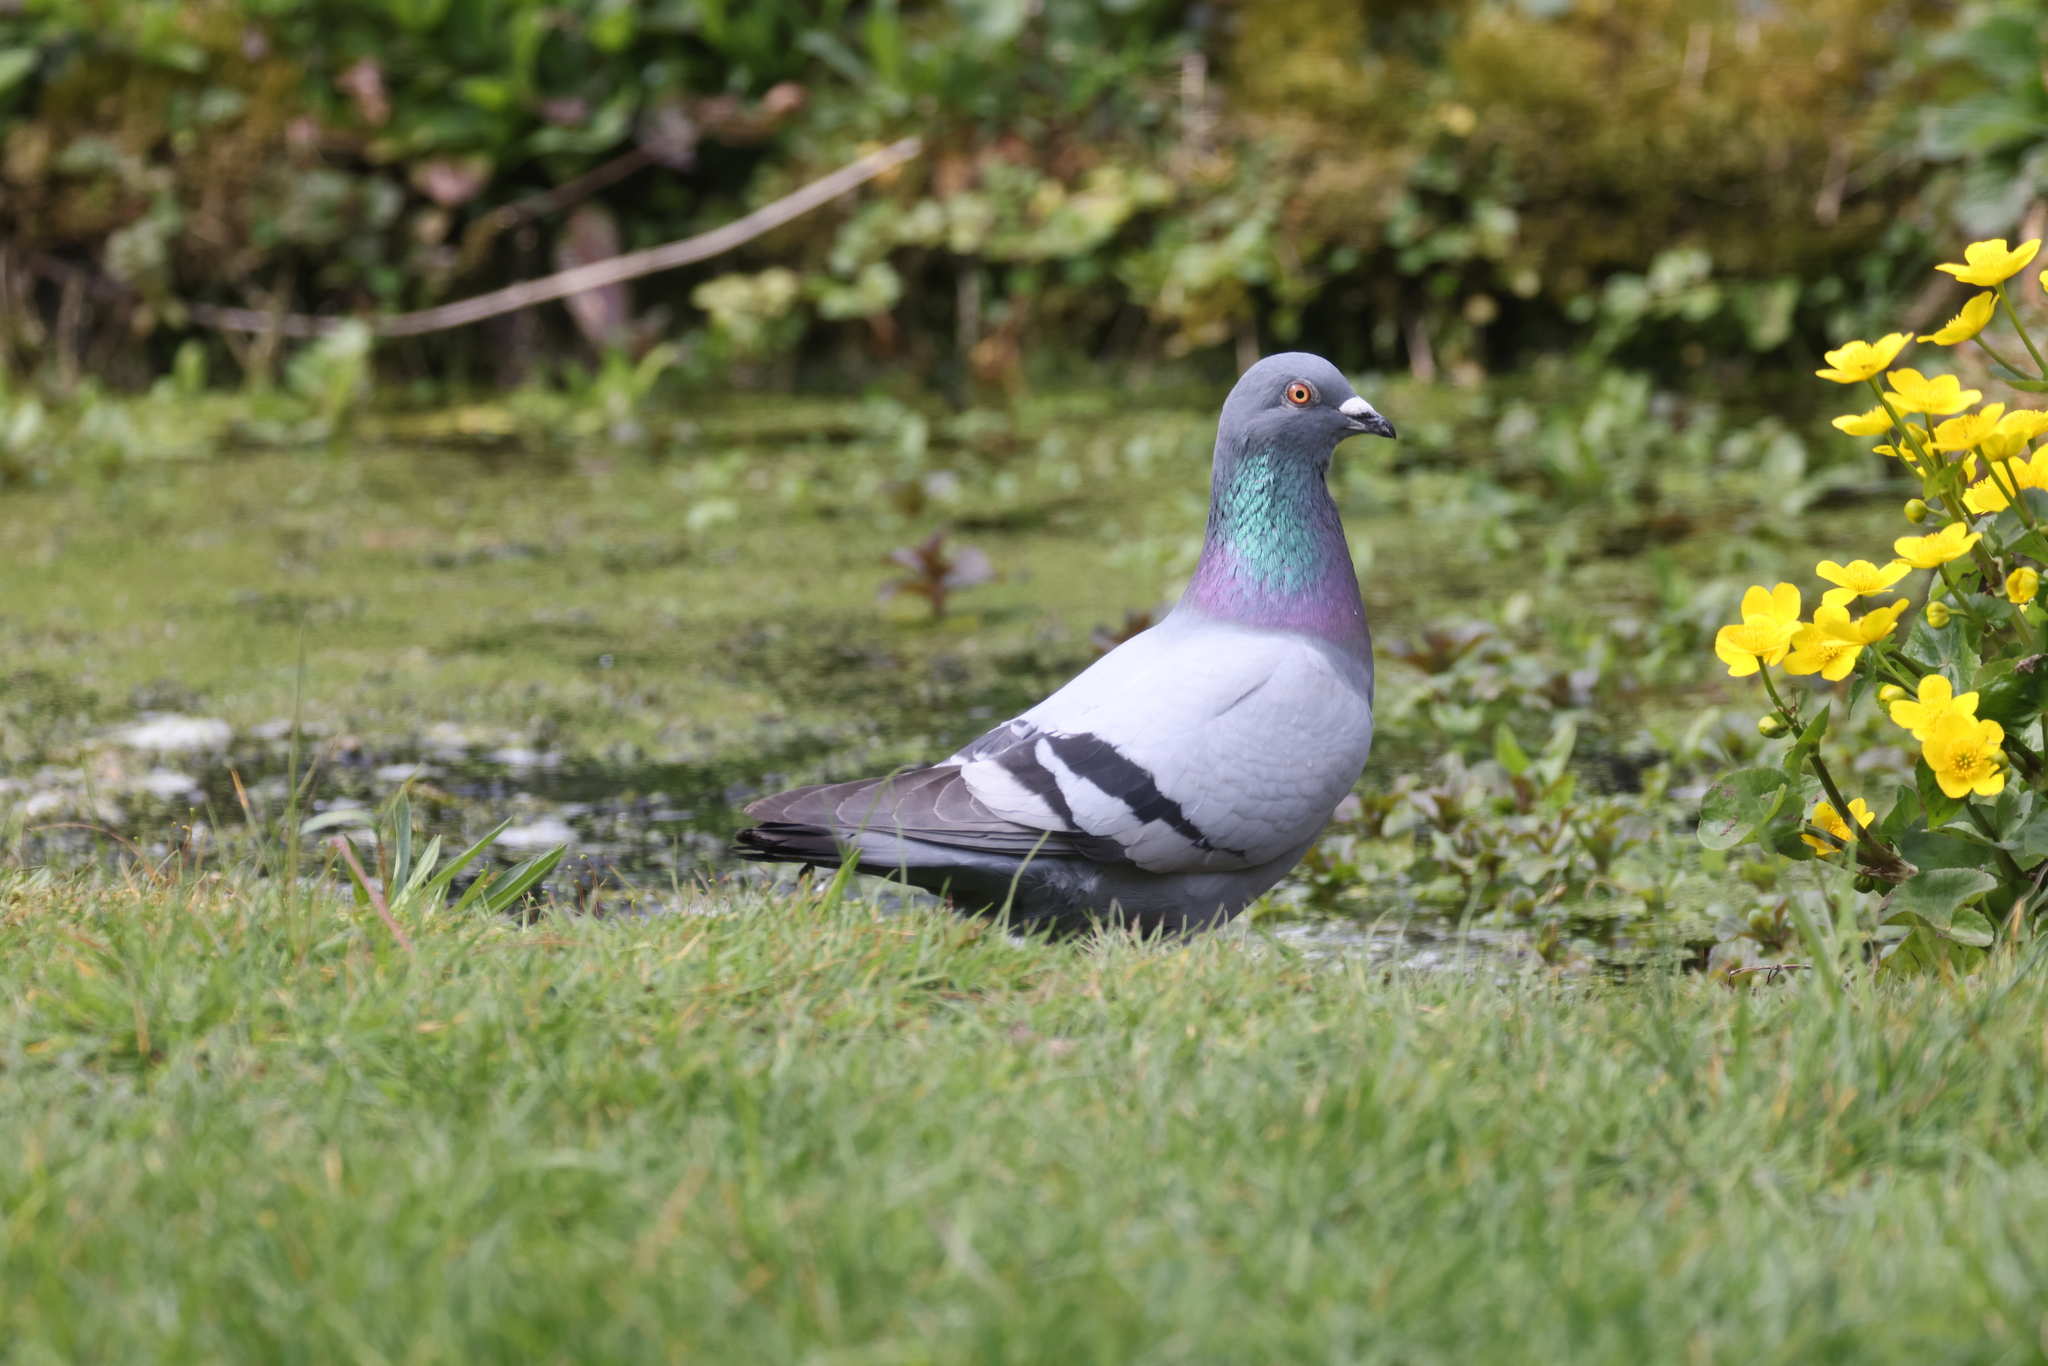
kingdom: Animalia
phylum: Chordata
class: Aves
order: Columbiformes
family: Columbidae
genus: Columba
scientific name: Columba livia
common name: Rock pigeon
